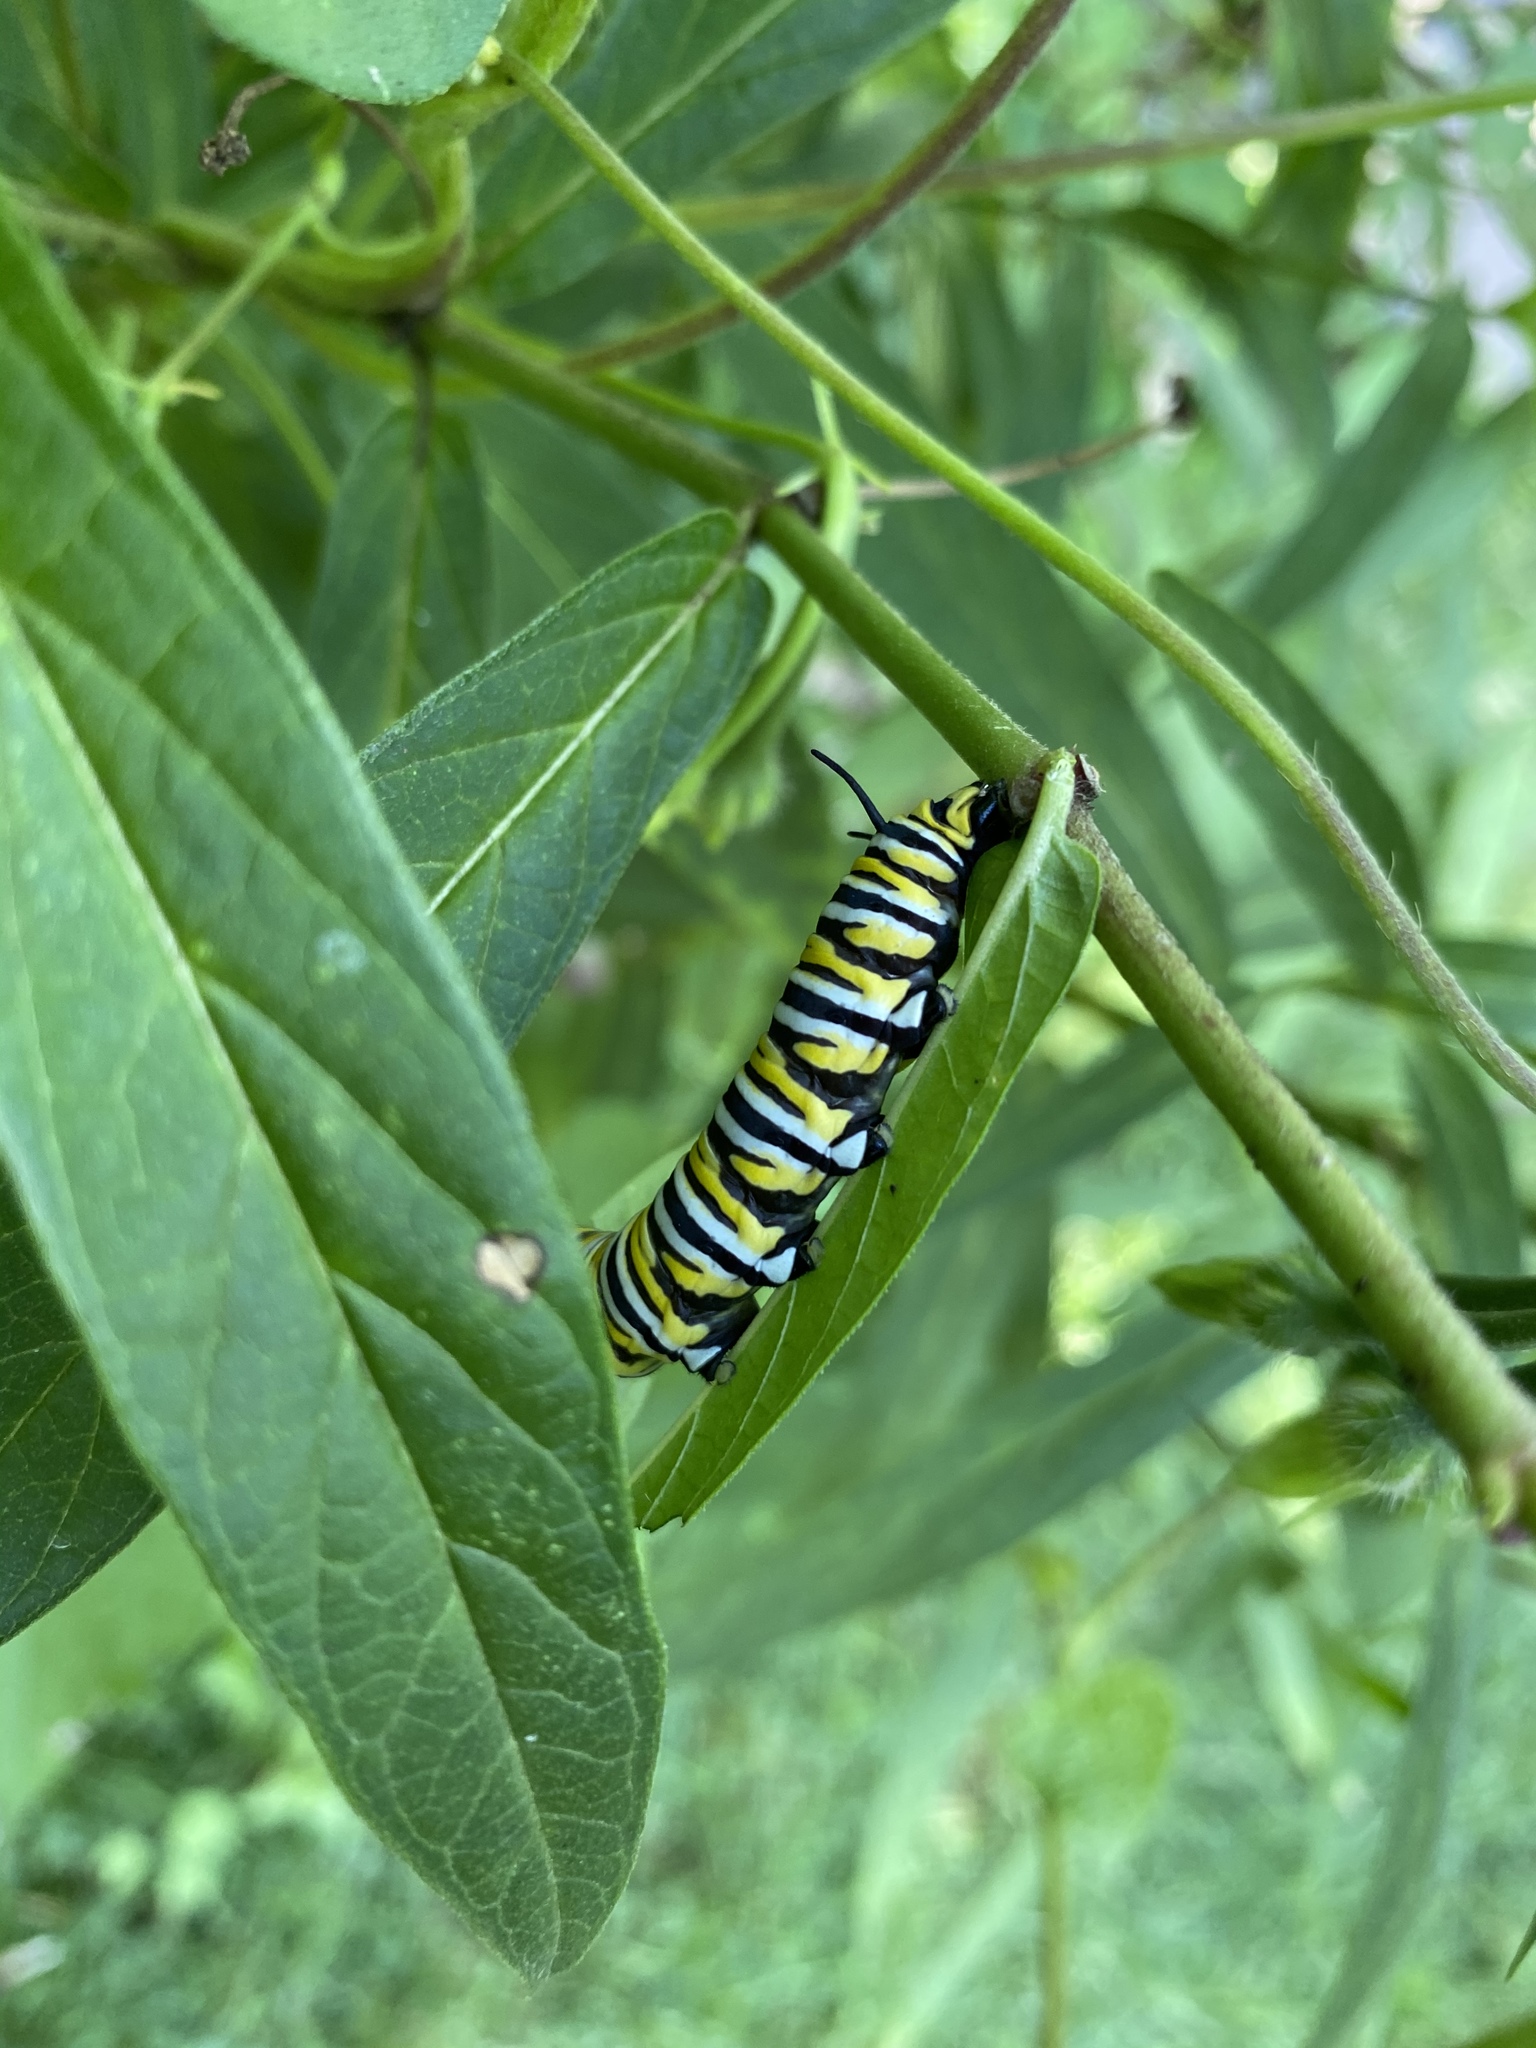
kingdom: Animalia
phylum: Arthropoda
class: Insecta
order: Lepidoptera
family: Nymphalidae
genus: Danaus
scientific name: Danaus plexippus
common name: Monarch
